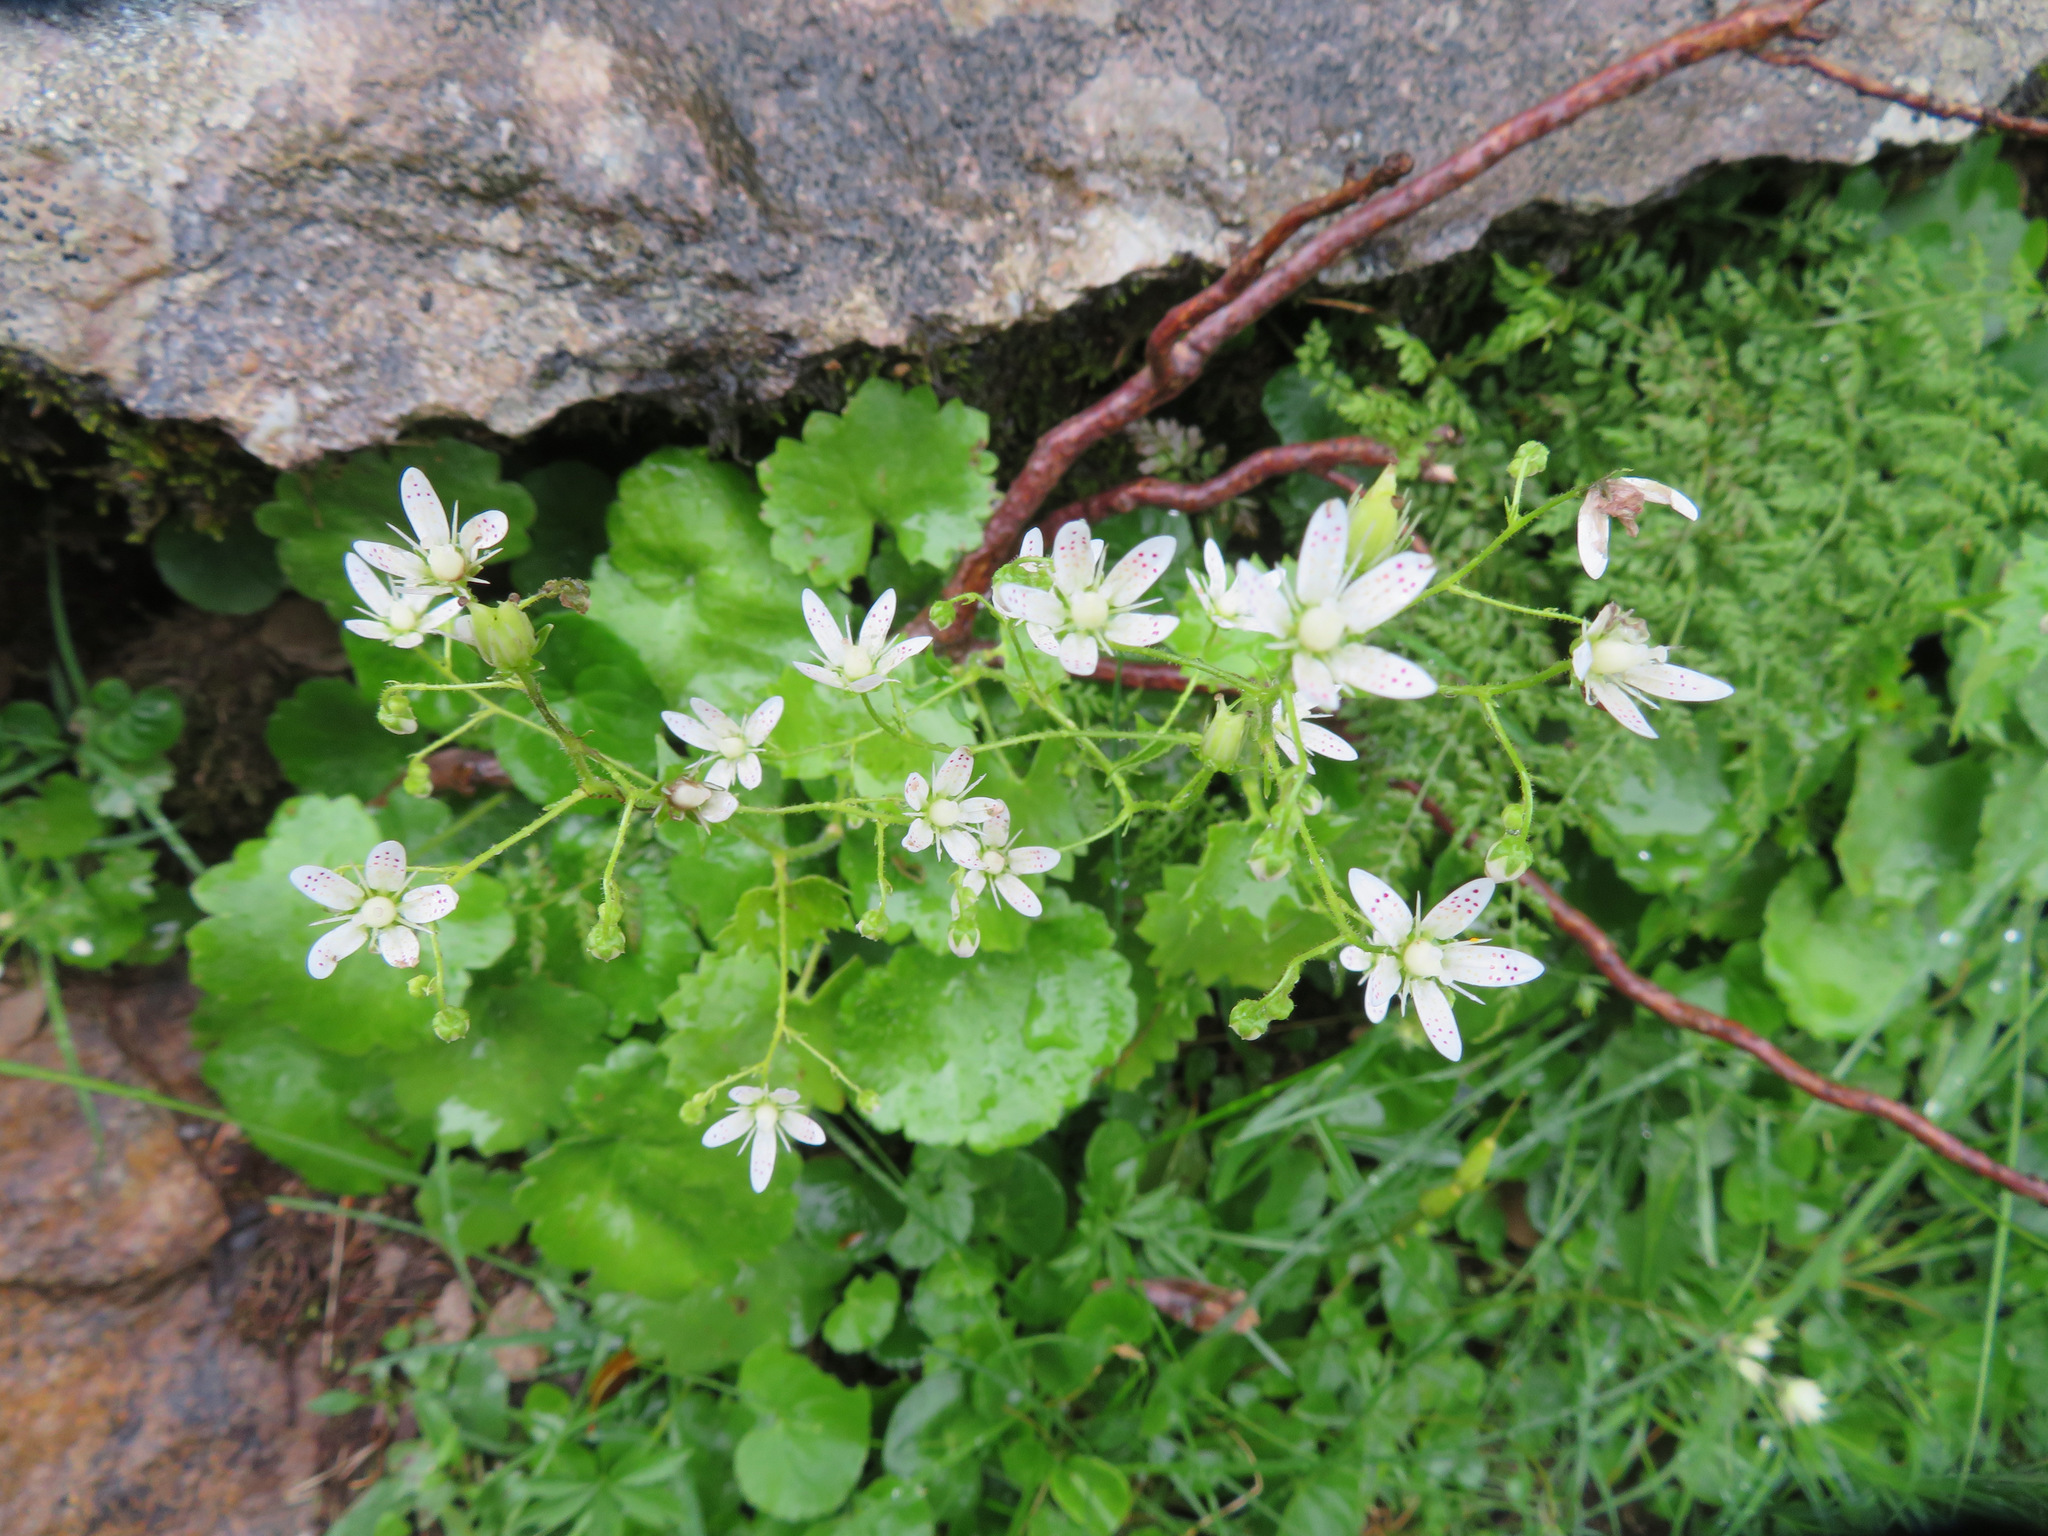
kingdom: Plantae
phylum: Tracheophyta
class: Magnoliopsida
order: Saxifragales
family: Saxifragaceae
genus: Saxifraga
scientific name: Saxifraga rotundifolia
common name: Round-leaved saxifrage
